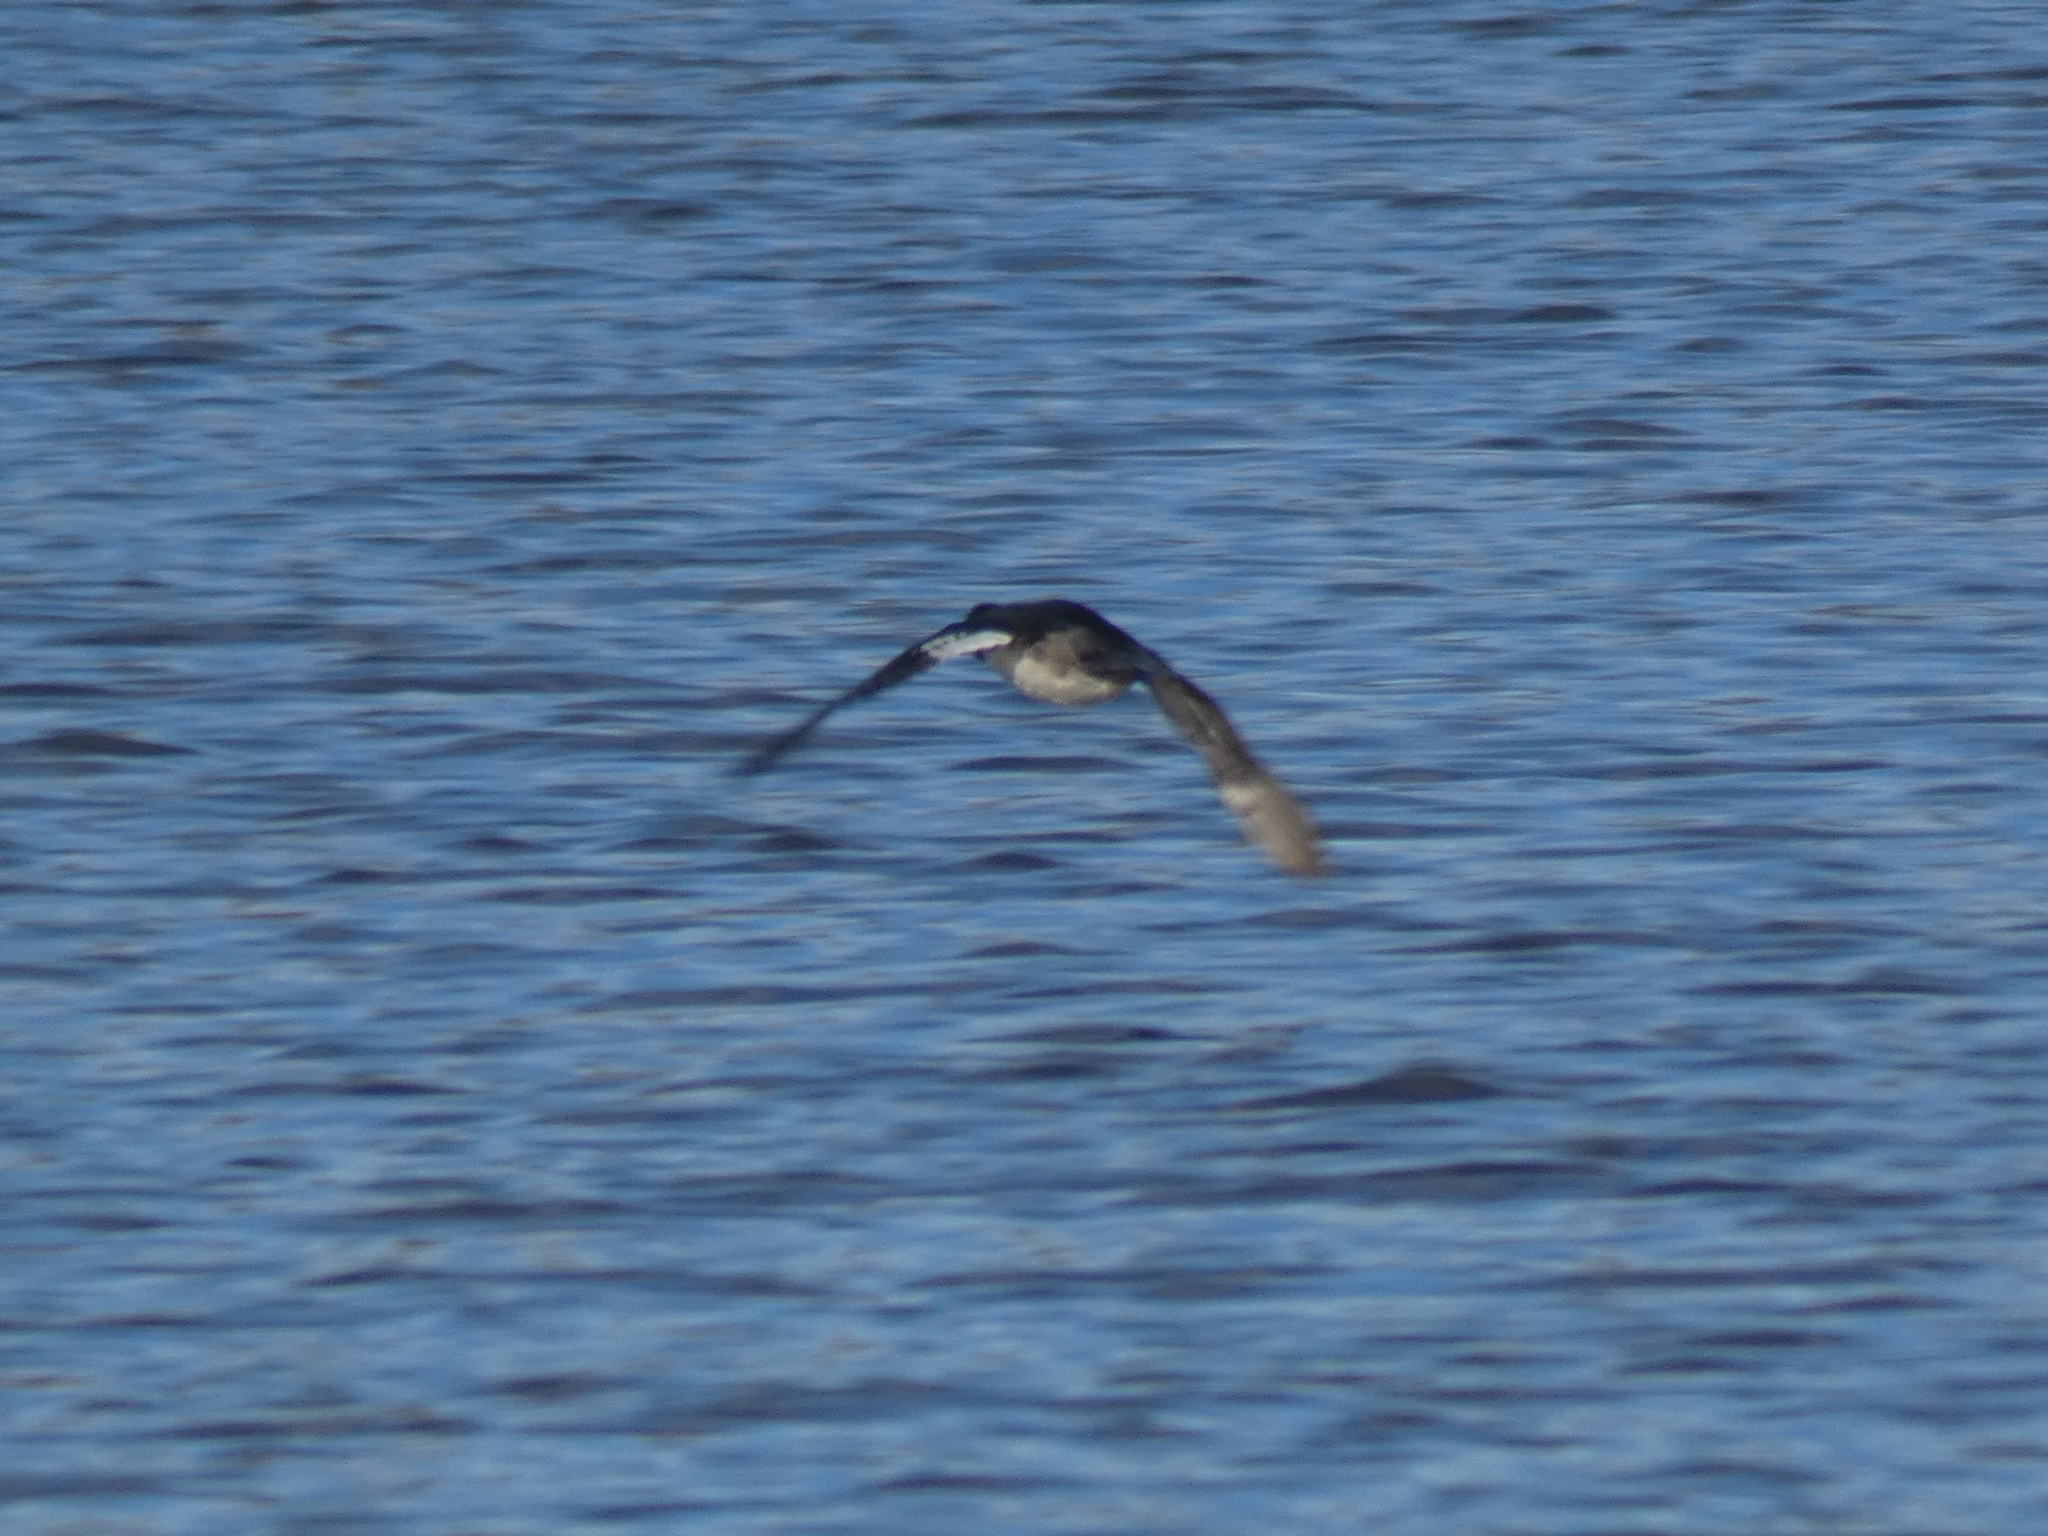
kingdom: Animalia
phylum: Chordata
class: Aves
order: Anseriformes
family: Anatidae
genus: Bucephala
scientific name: Bucephala albeola
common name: Bufflehead
